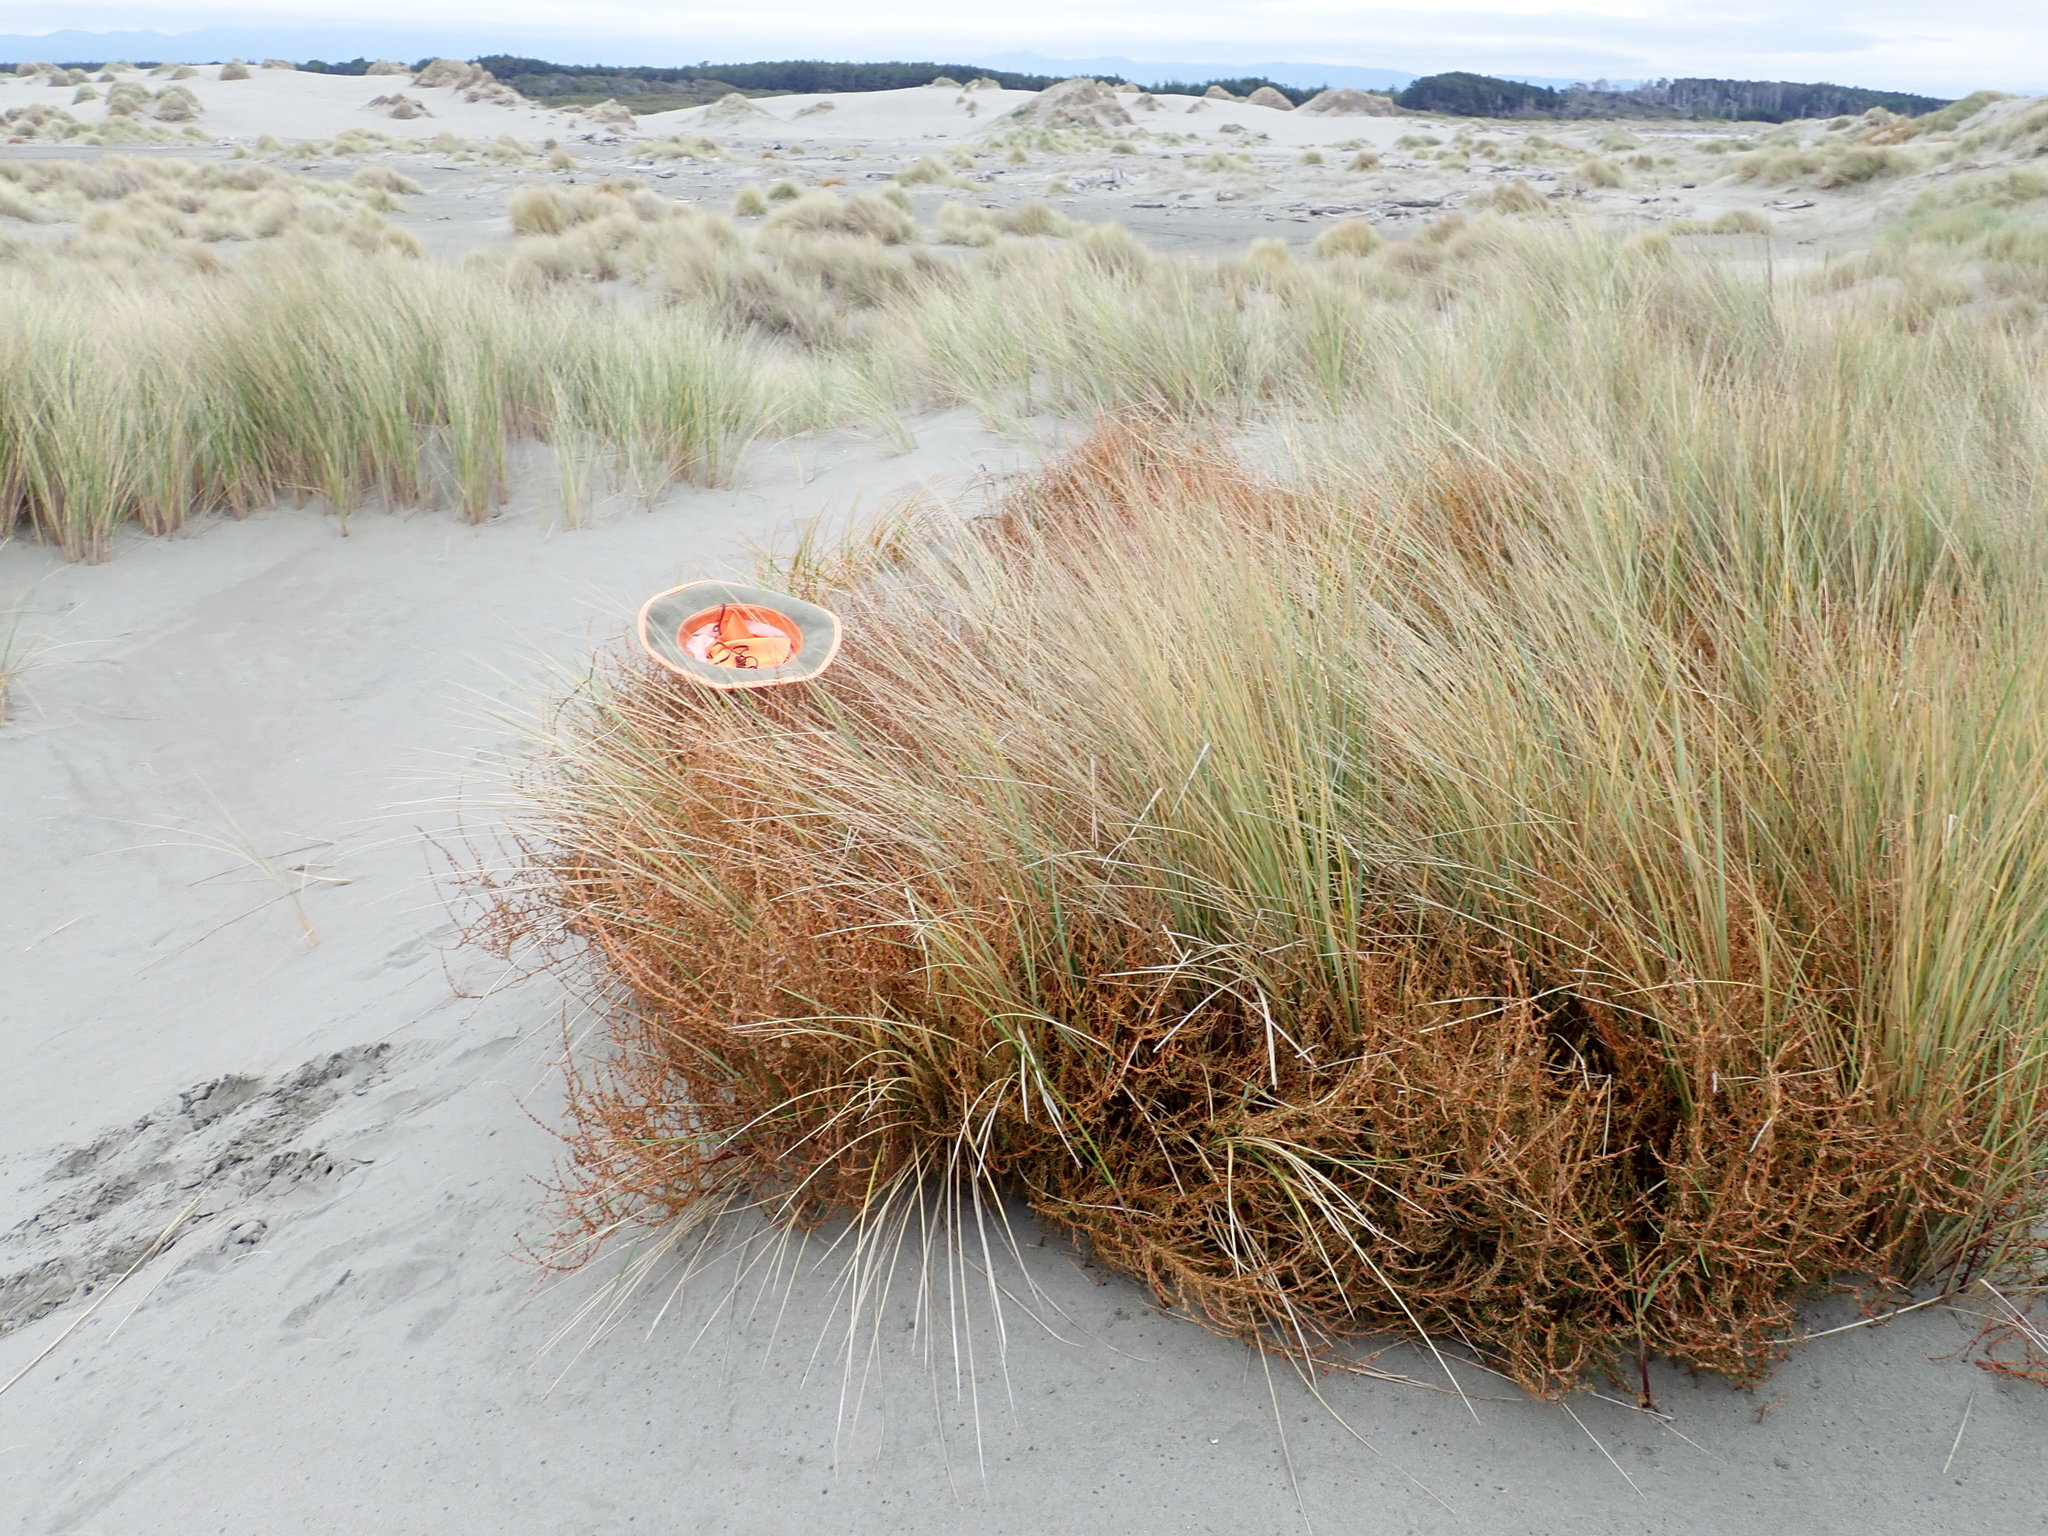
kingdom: Plantae
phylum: Tracheophyta
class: Magnoliopsida
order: Gentianales
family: Rubiaceae
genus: Coprosma
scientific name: Coprosma acerosa
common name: Sand coprosma
